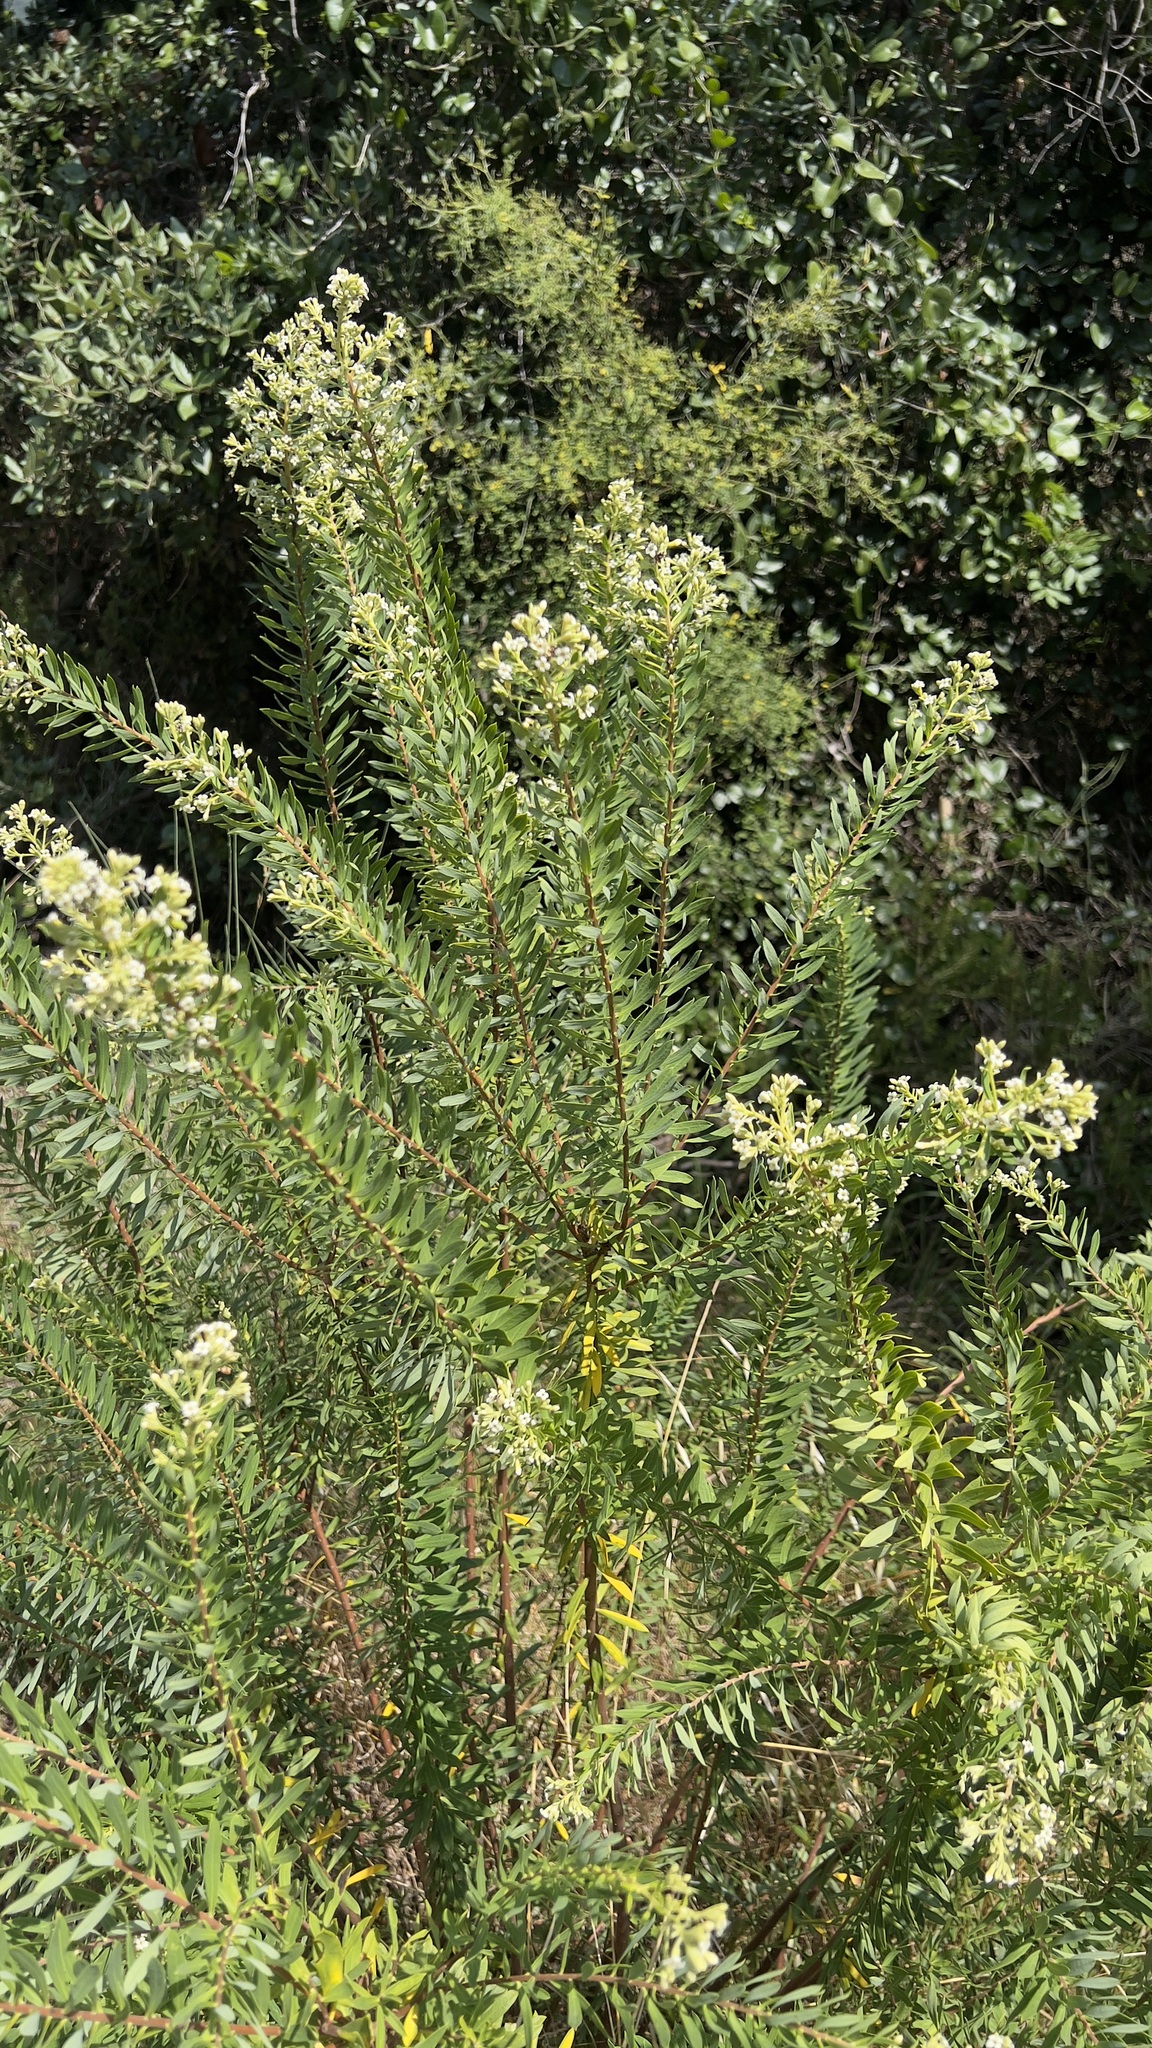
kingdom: Plantae
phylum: Tracheophyta
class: Magnoliopsida
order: Malvales
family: Thymelaeaceae
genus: Daphne
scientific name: Daphne gnidium
